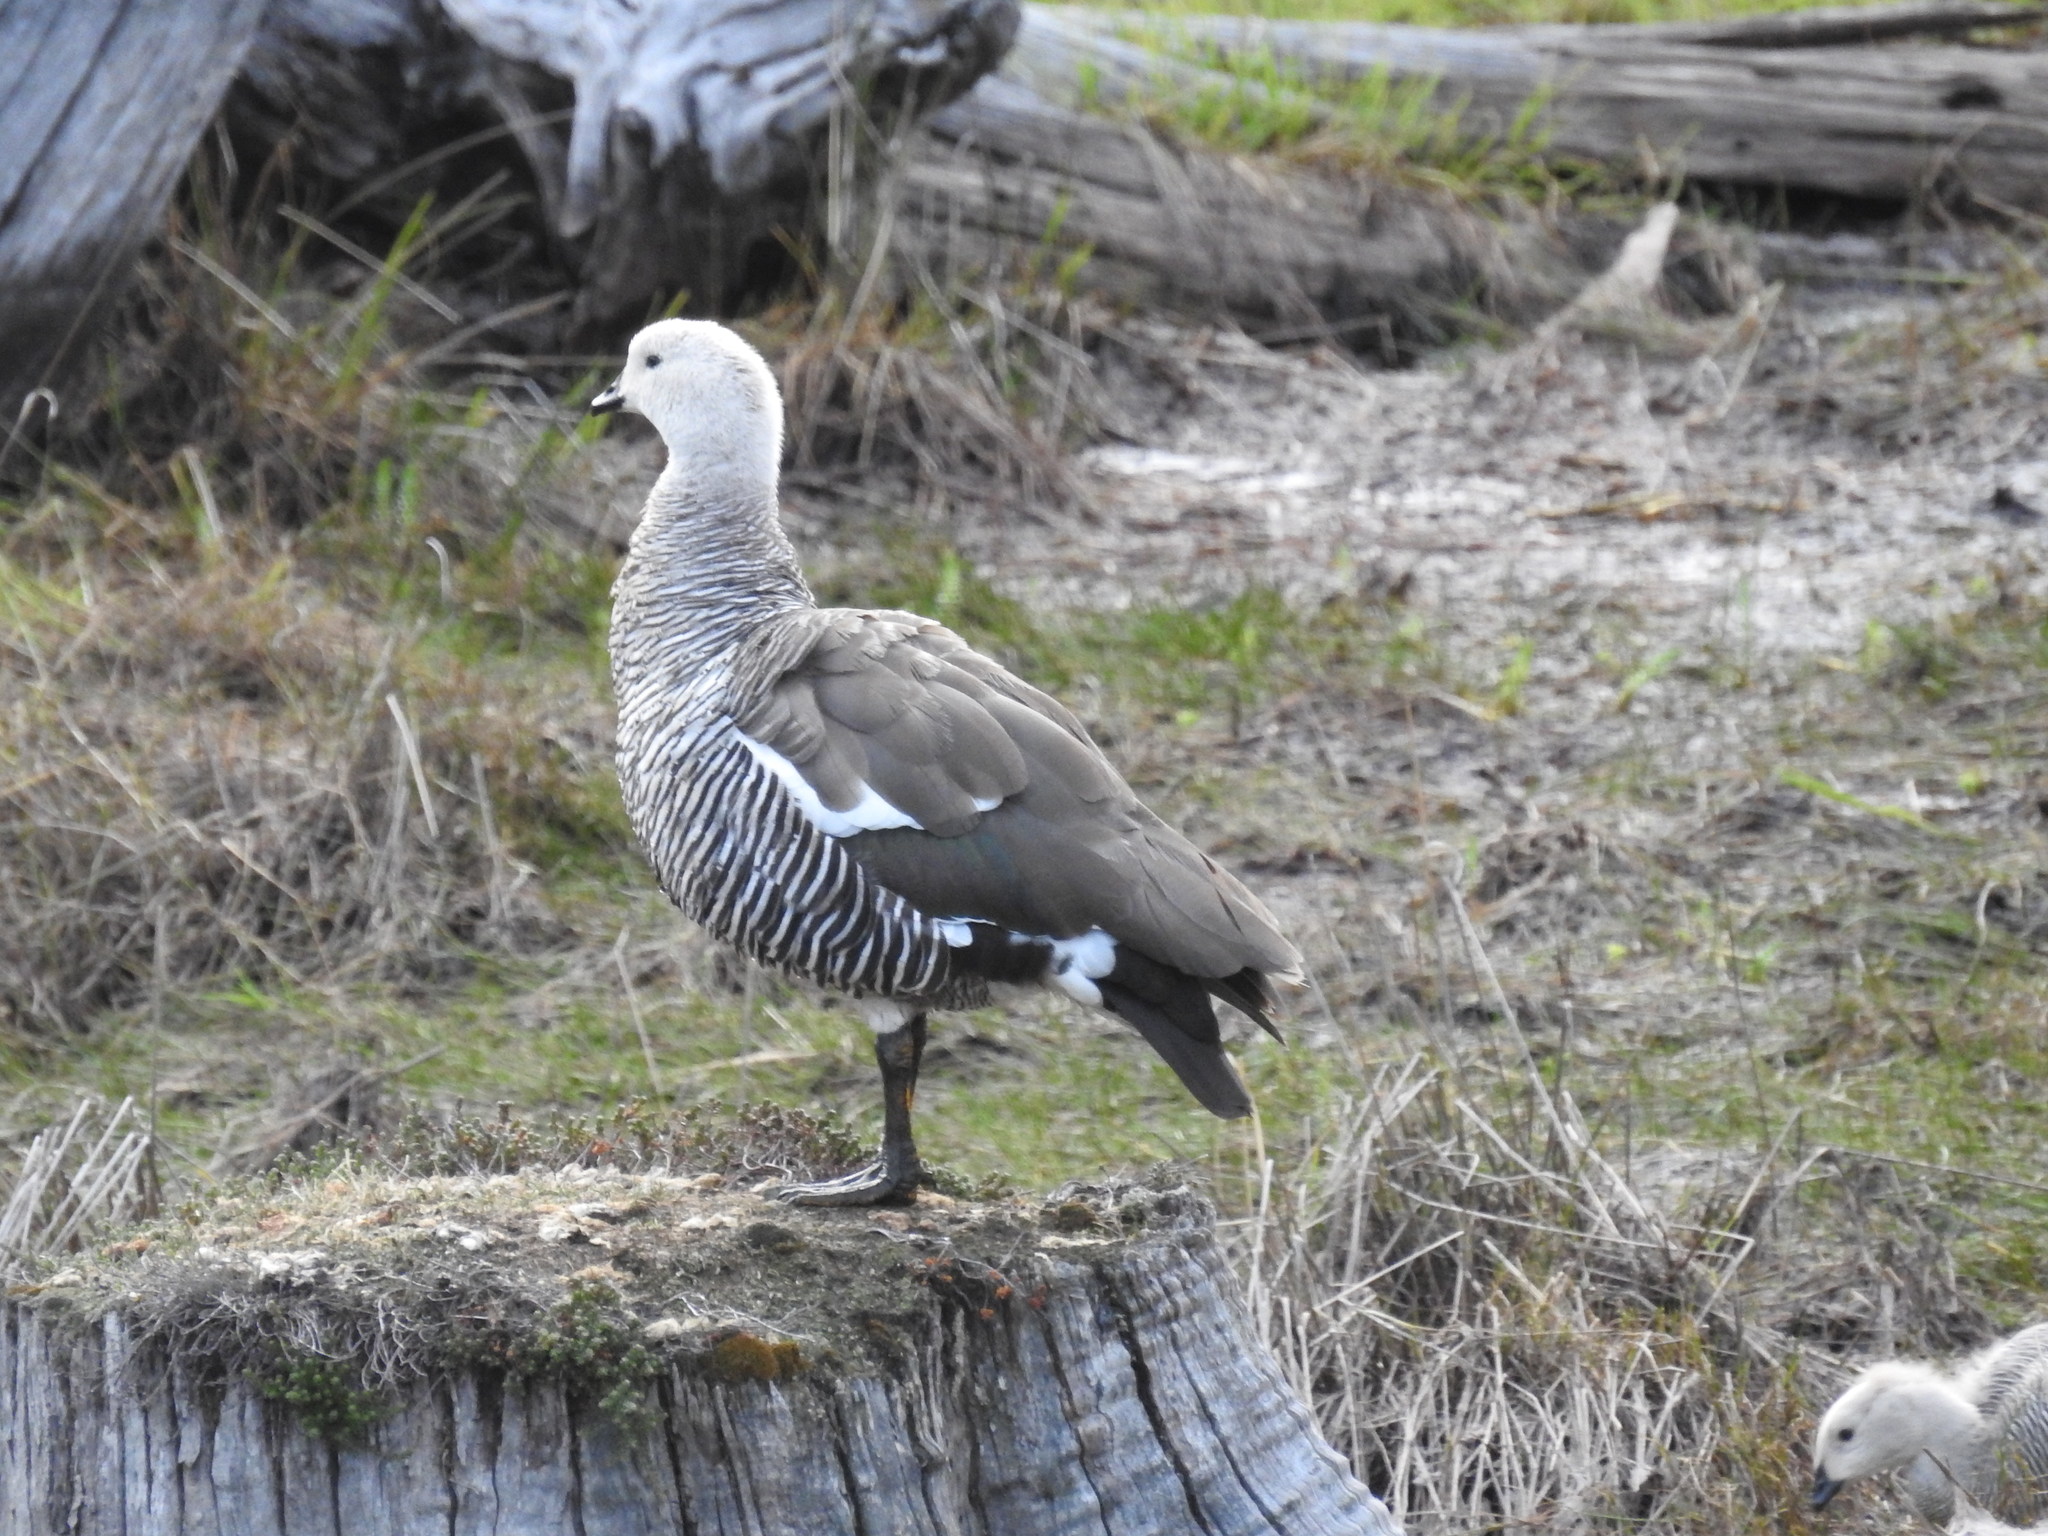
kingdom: Animalia
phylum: Chordata
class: Aves
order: Anseriformes
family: Anatidae
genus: Chloephaga
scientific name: Chloephaga picta
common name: Upland goose
